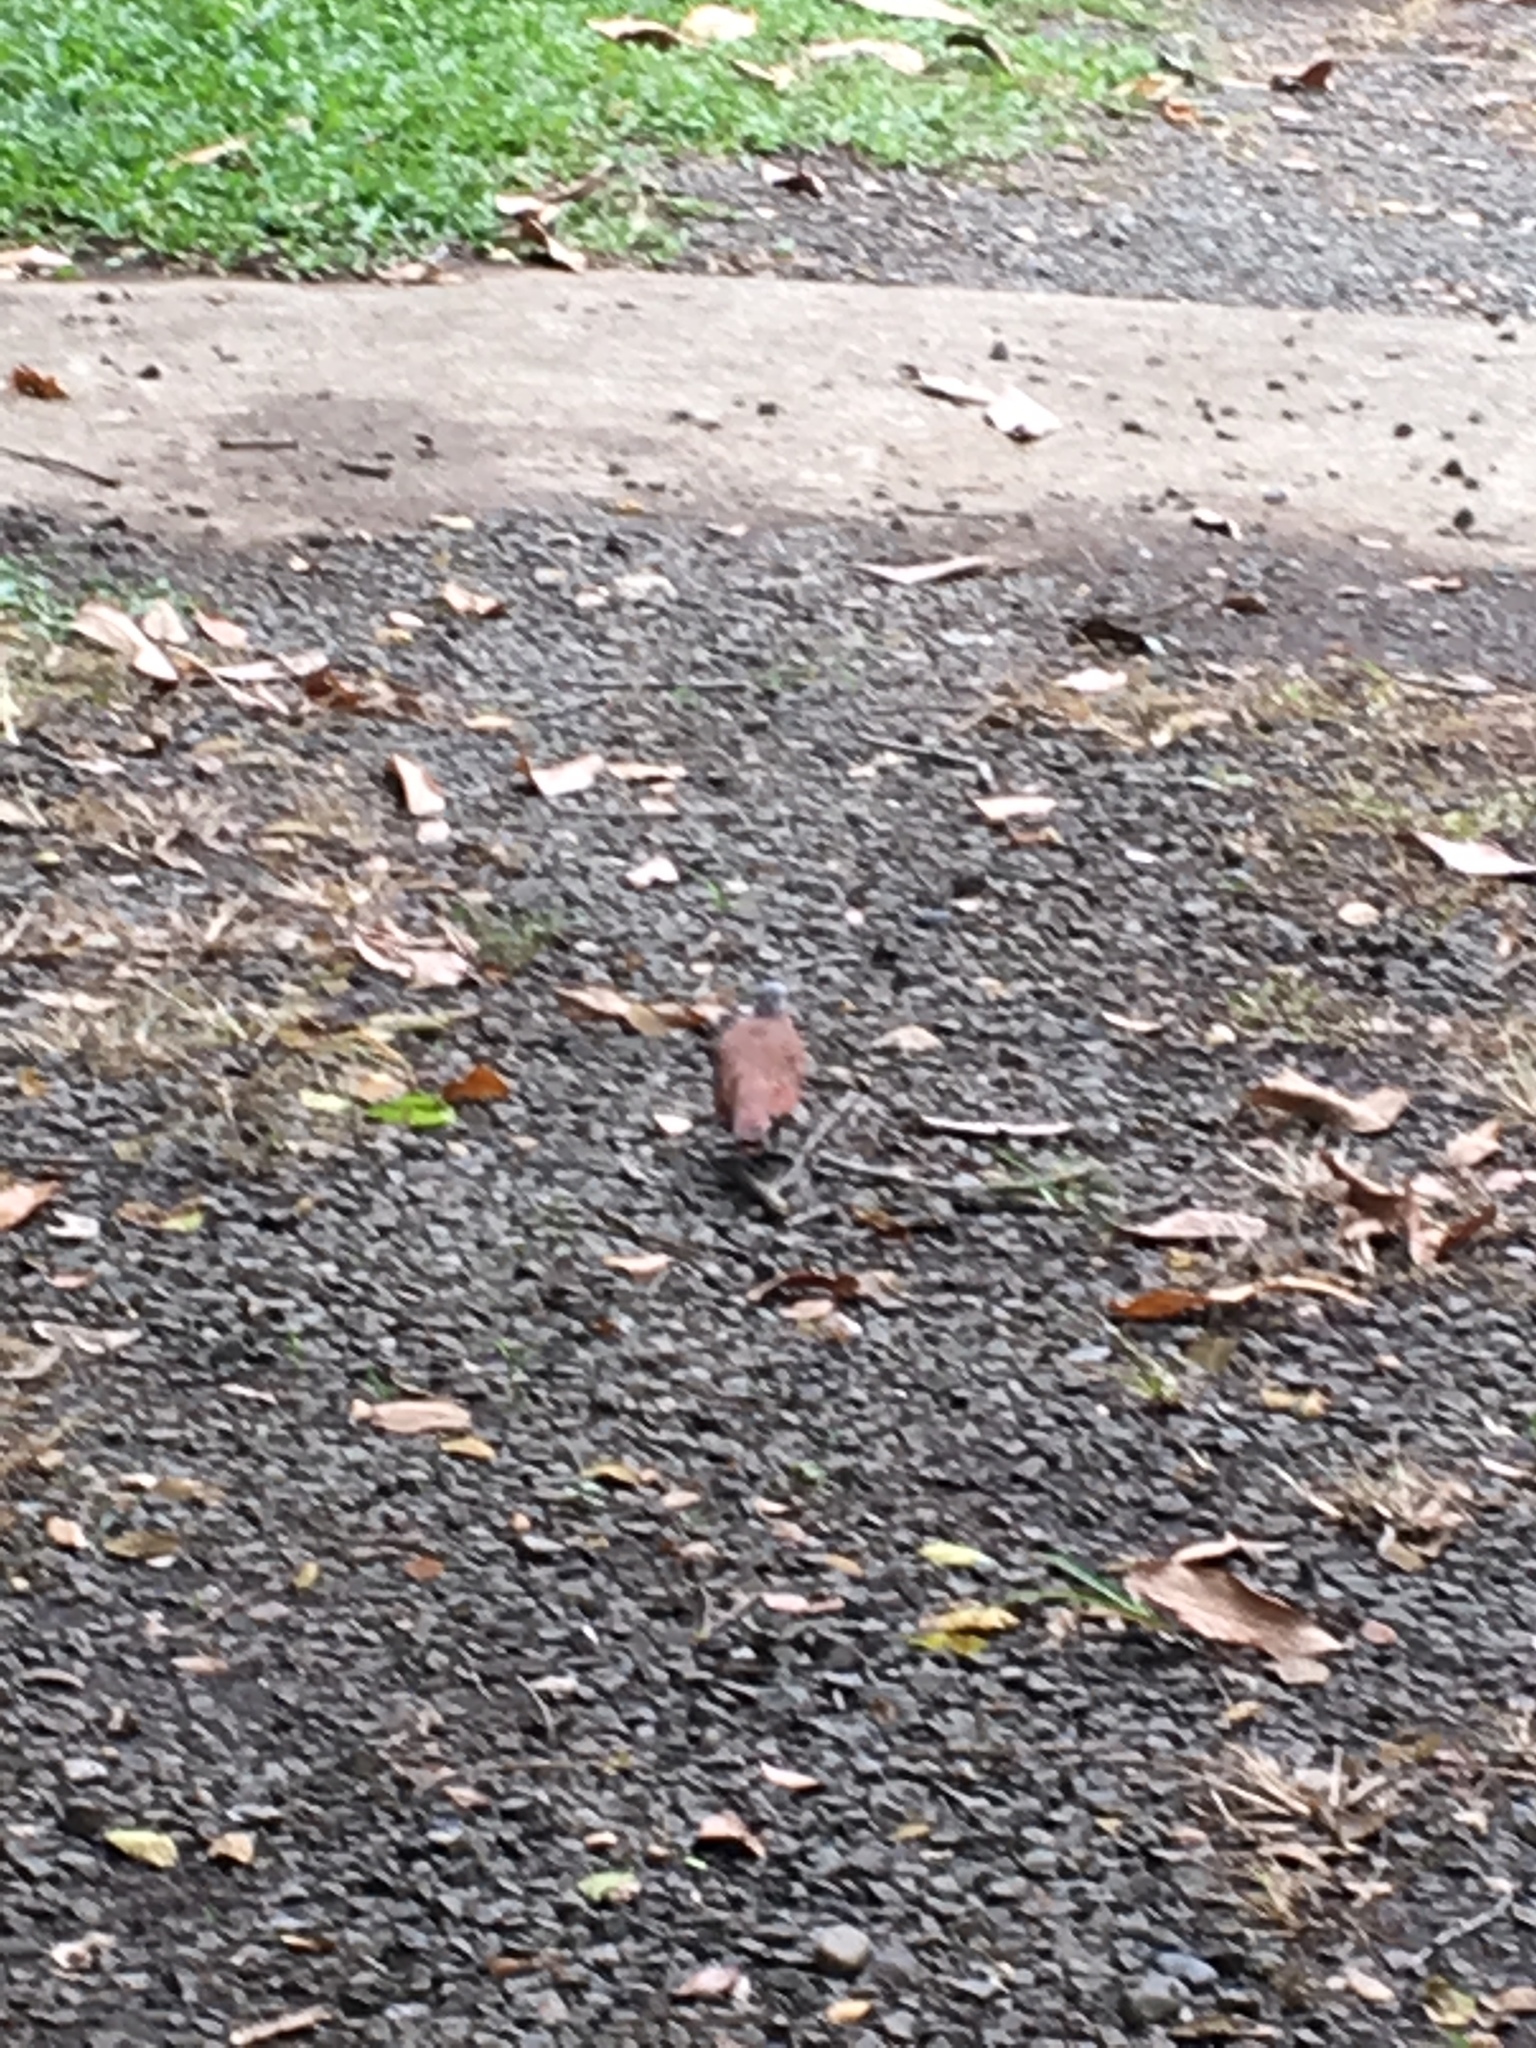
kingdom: Animalia
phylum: Chordata
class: Aves
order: Columbiformes
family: Columbidae
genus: Columbina
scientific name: Columbina talpacoti
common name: Ruddy ground dove
